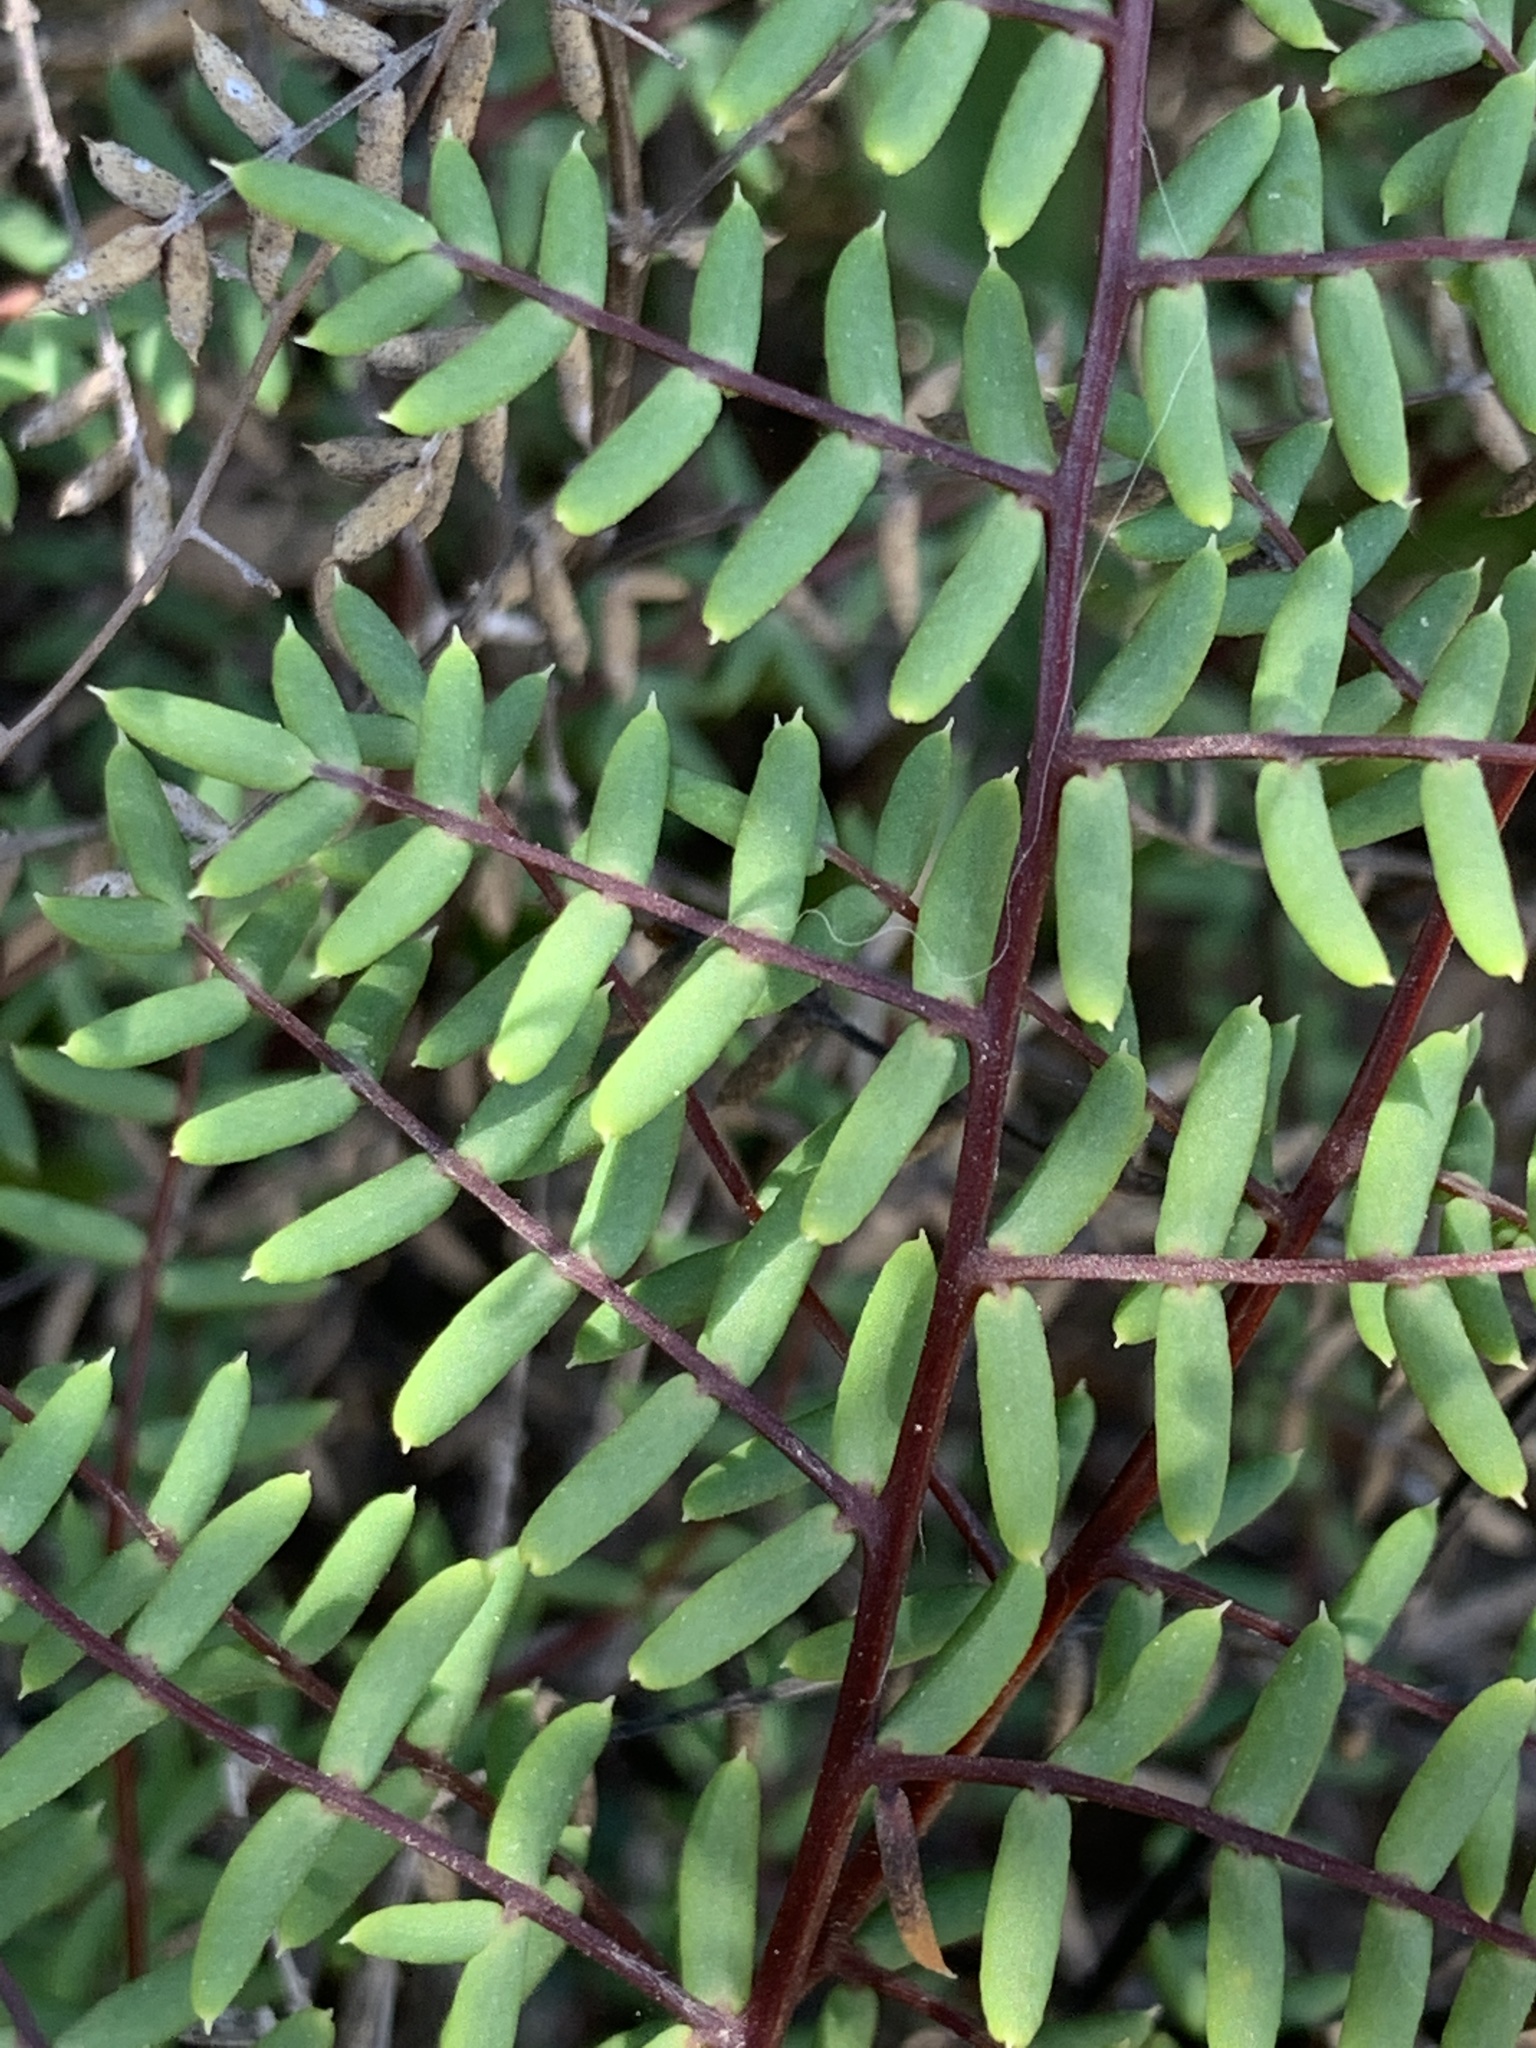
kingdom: Plantae
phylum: Tracheophyta
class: Polypodiopsida
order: Polypodiales
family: Pteridaceae
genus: Pellaea
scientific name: Pellaea mucronata
